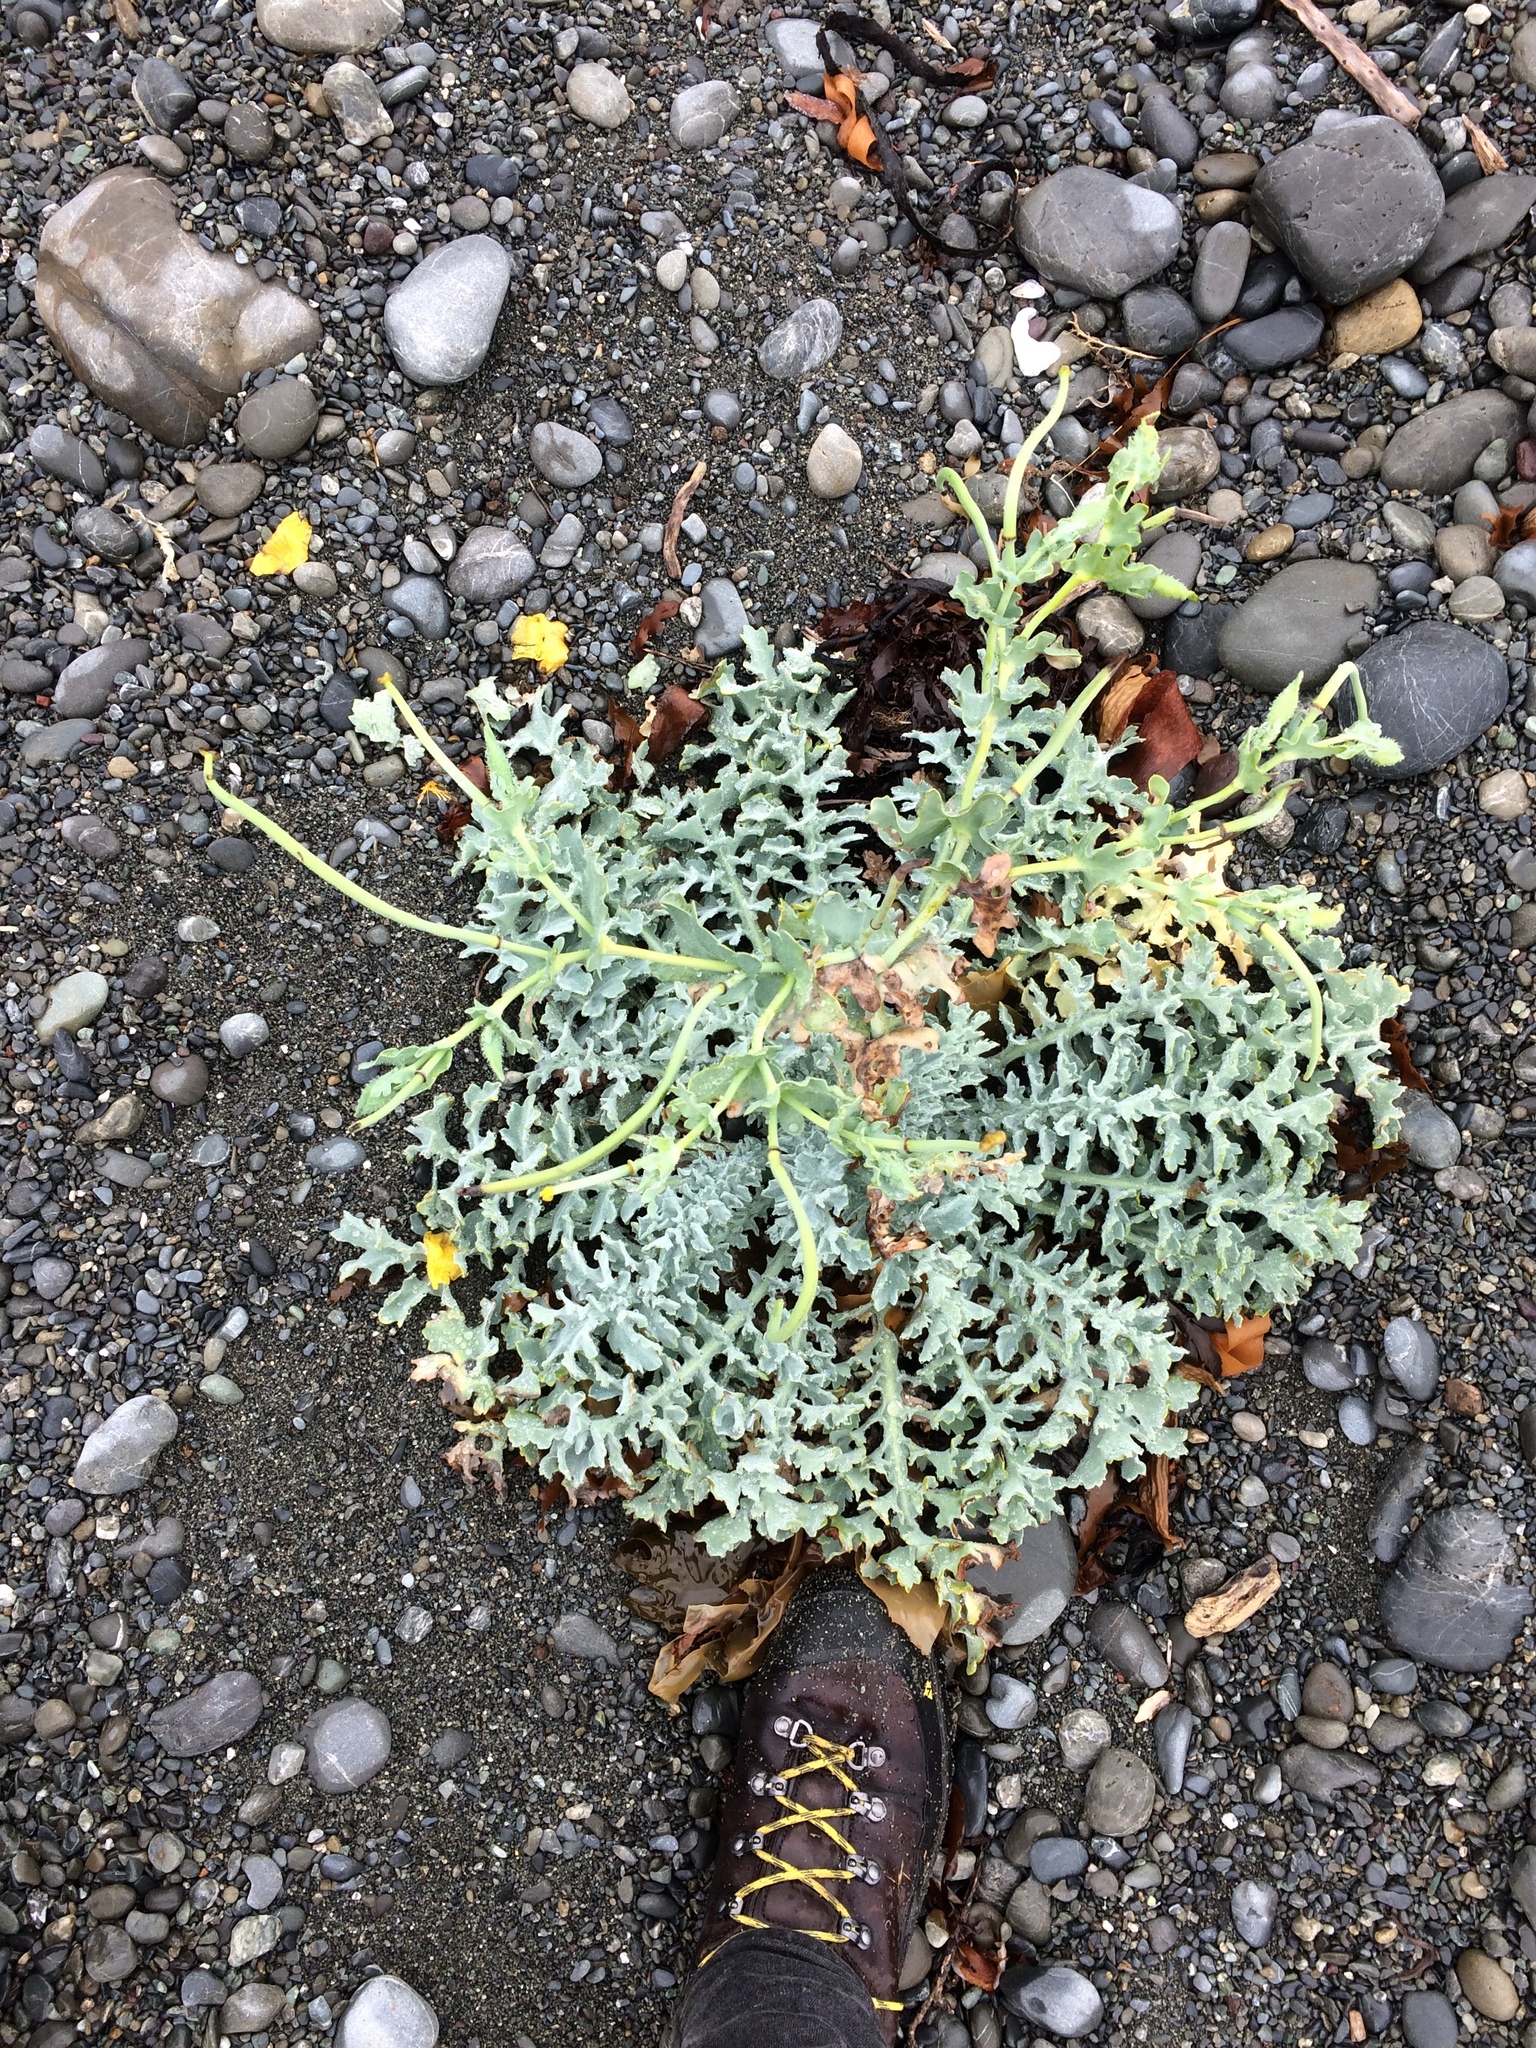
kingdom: Plantae
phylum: Tracheophyta
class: Magnoliopsida
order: Ranunculales
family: Papaveraceae
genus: Glaucium
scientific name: Glaucium flavum
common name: Yellow horned-poppy
